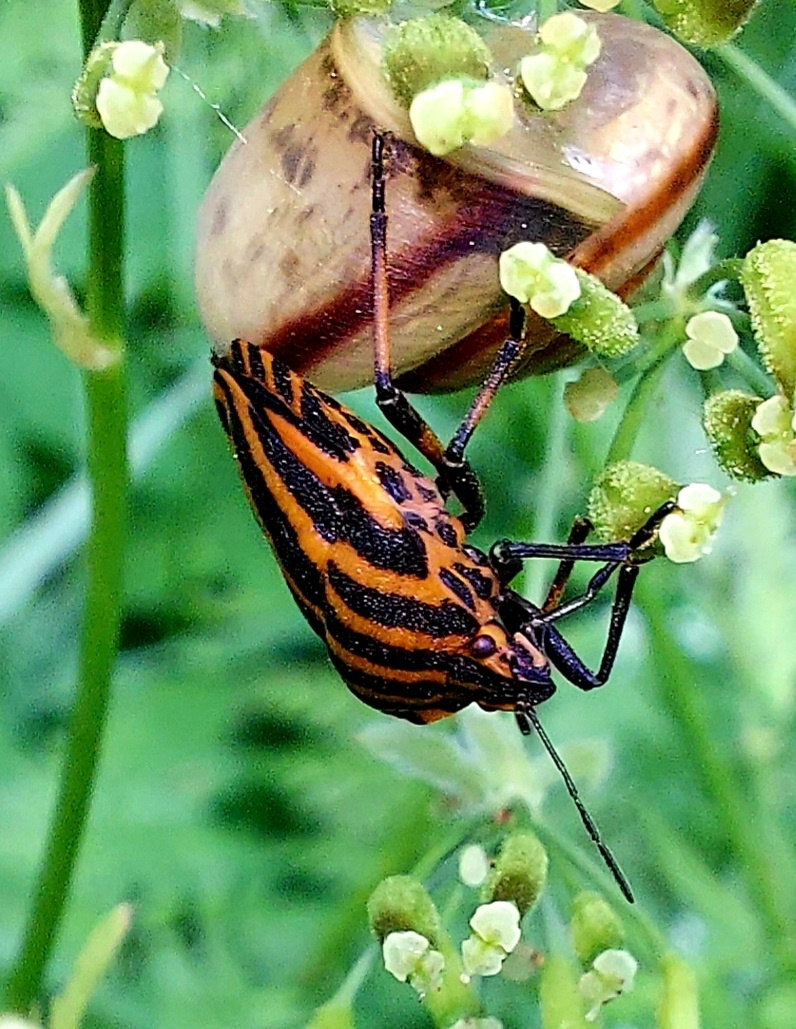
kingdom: Animalia
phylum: Arthropoda
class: Insecta
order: Hemiptera
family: Pentatomidae
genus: Graphosoma
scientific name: Graphosoma italicum
